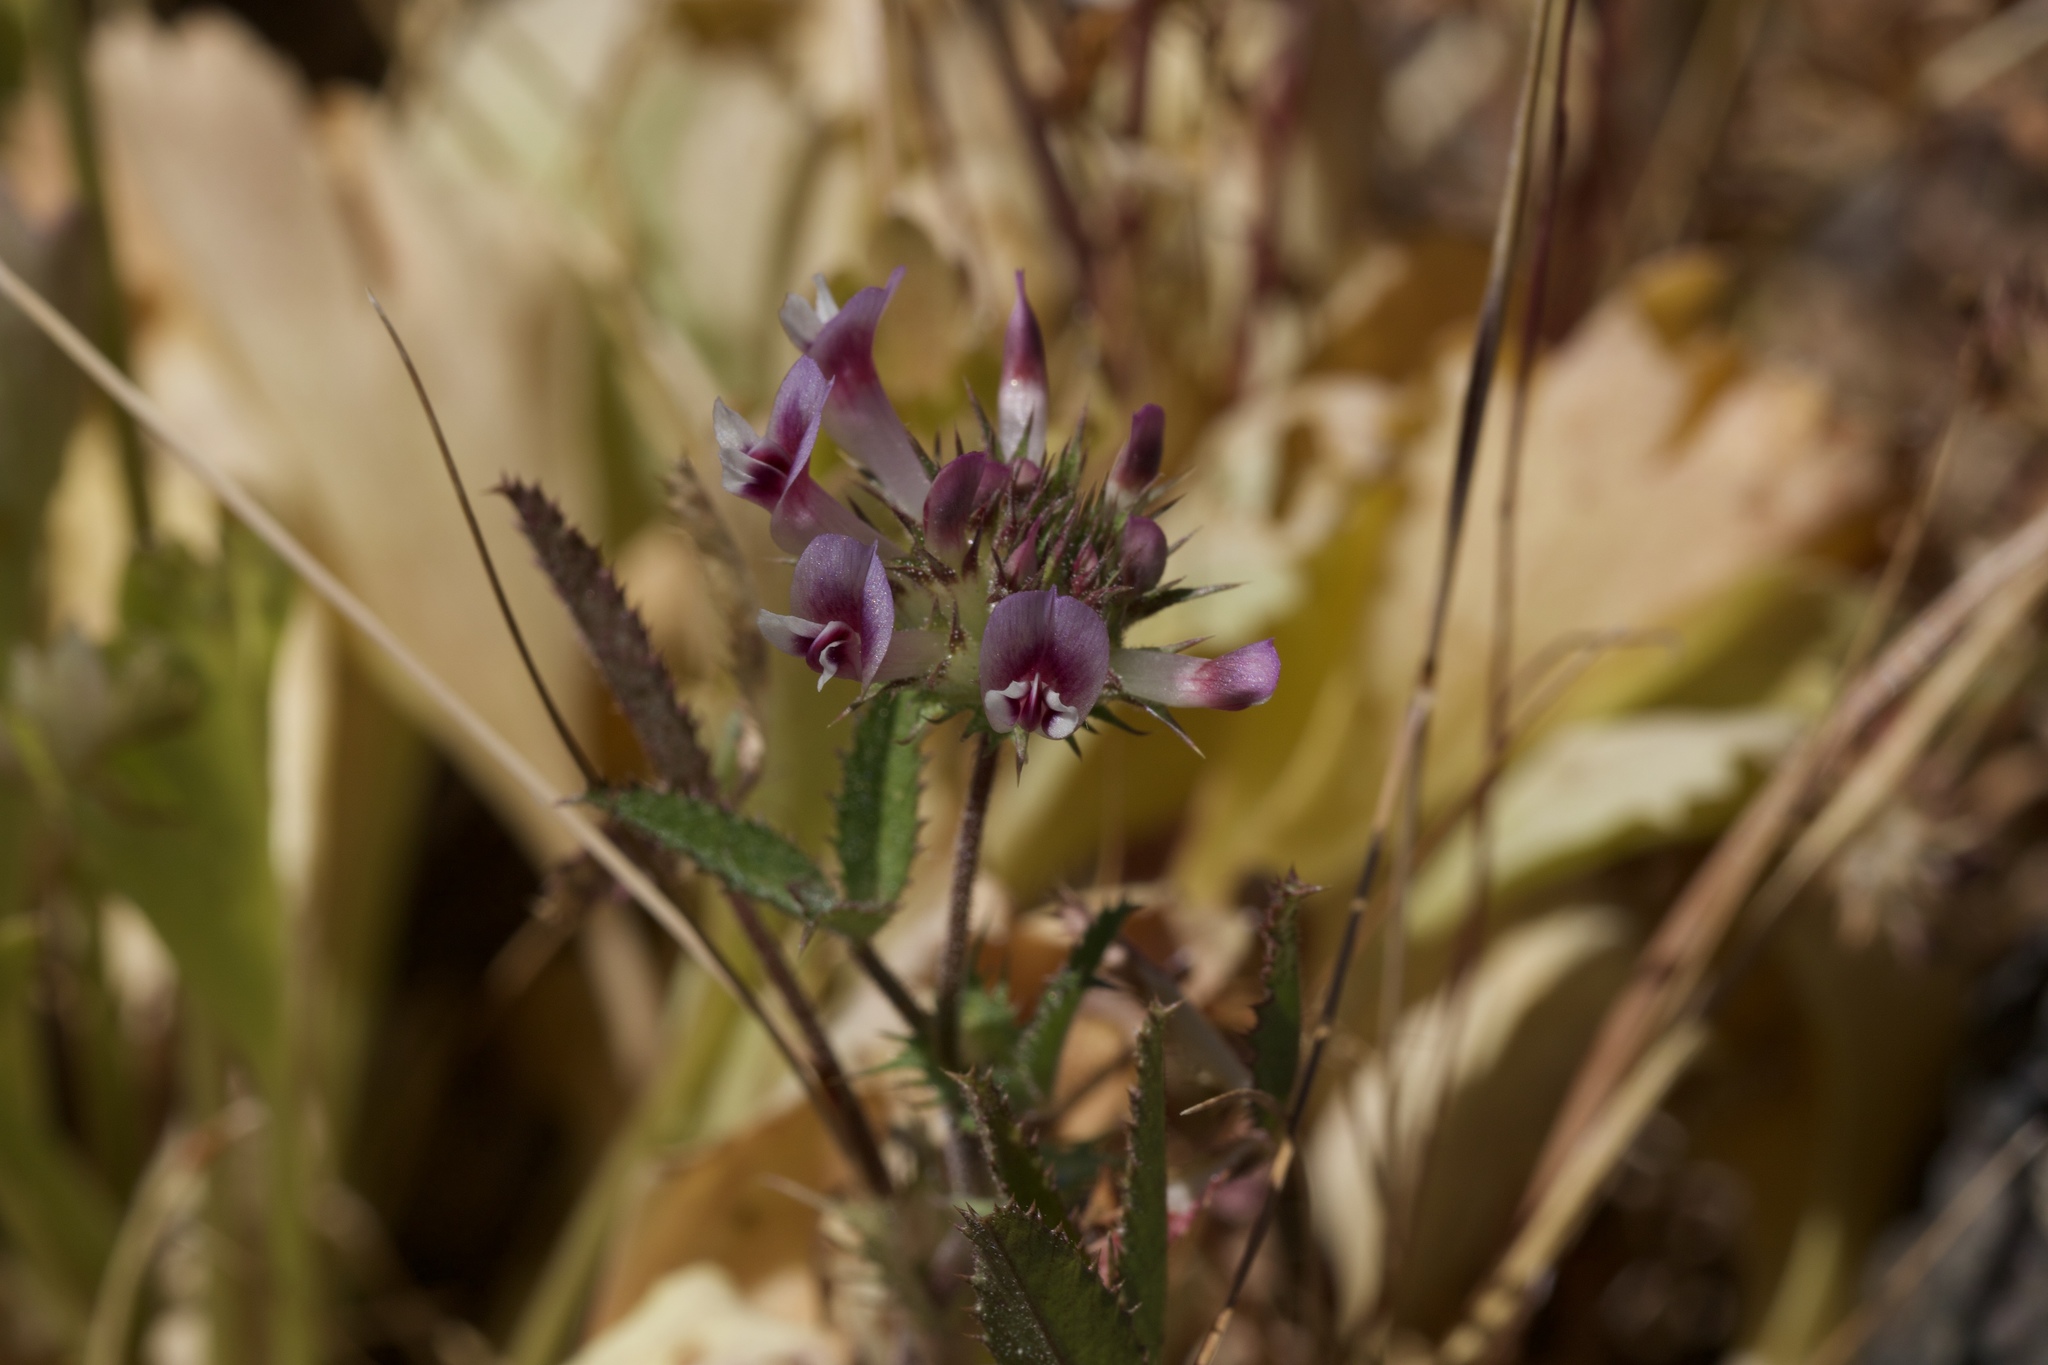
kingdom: Plantae
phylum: Tracheophyta
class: Magnoliopsida
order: Fabales
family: Fabaceae
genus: Trifolium
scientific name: Trifolium obtusiflorum
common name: Clammy clover
